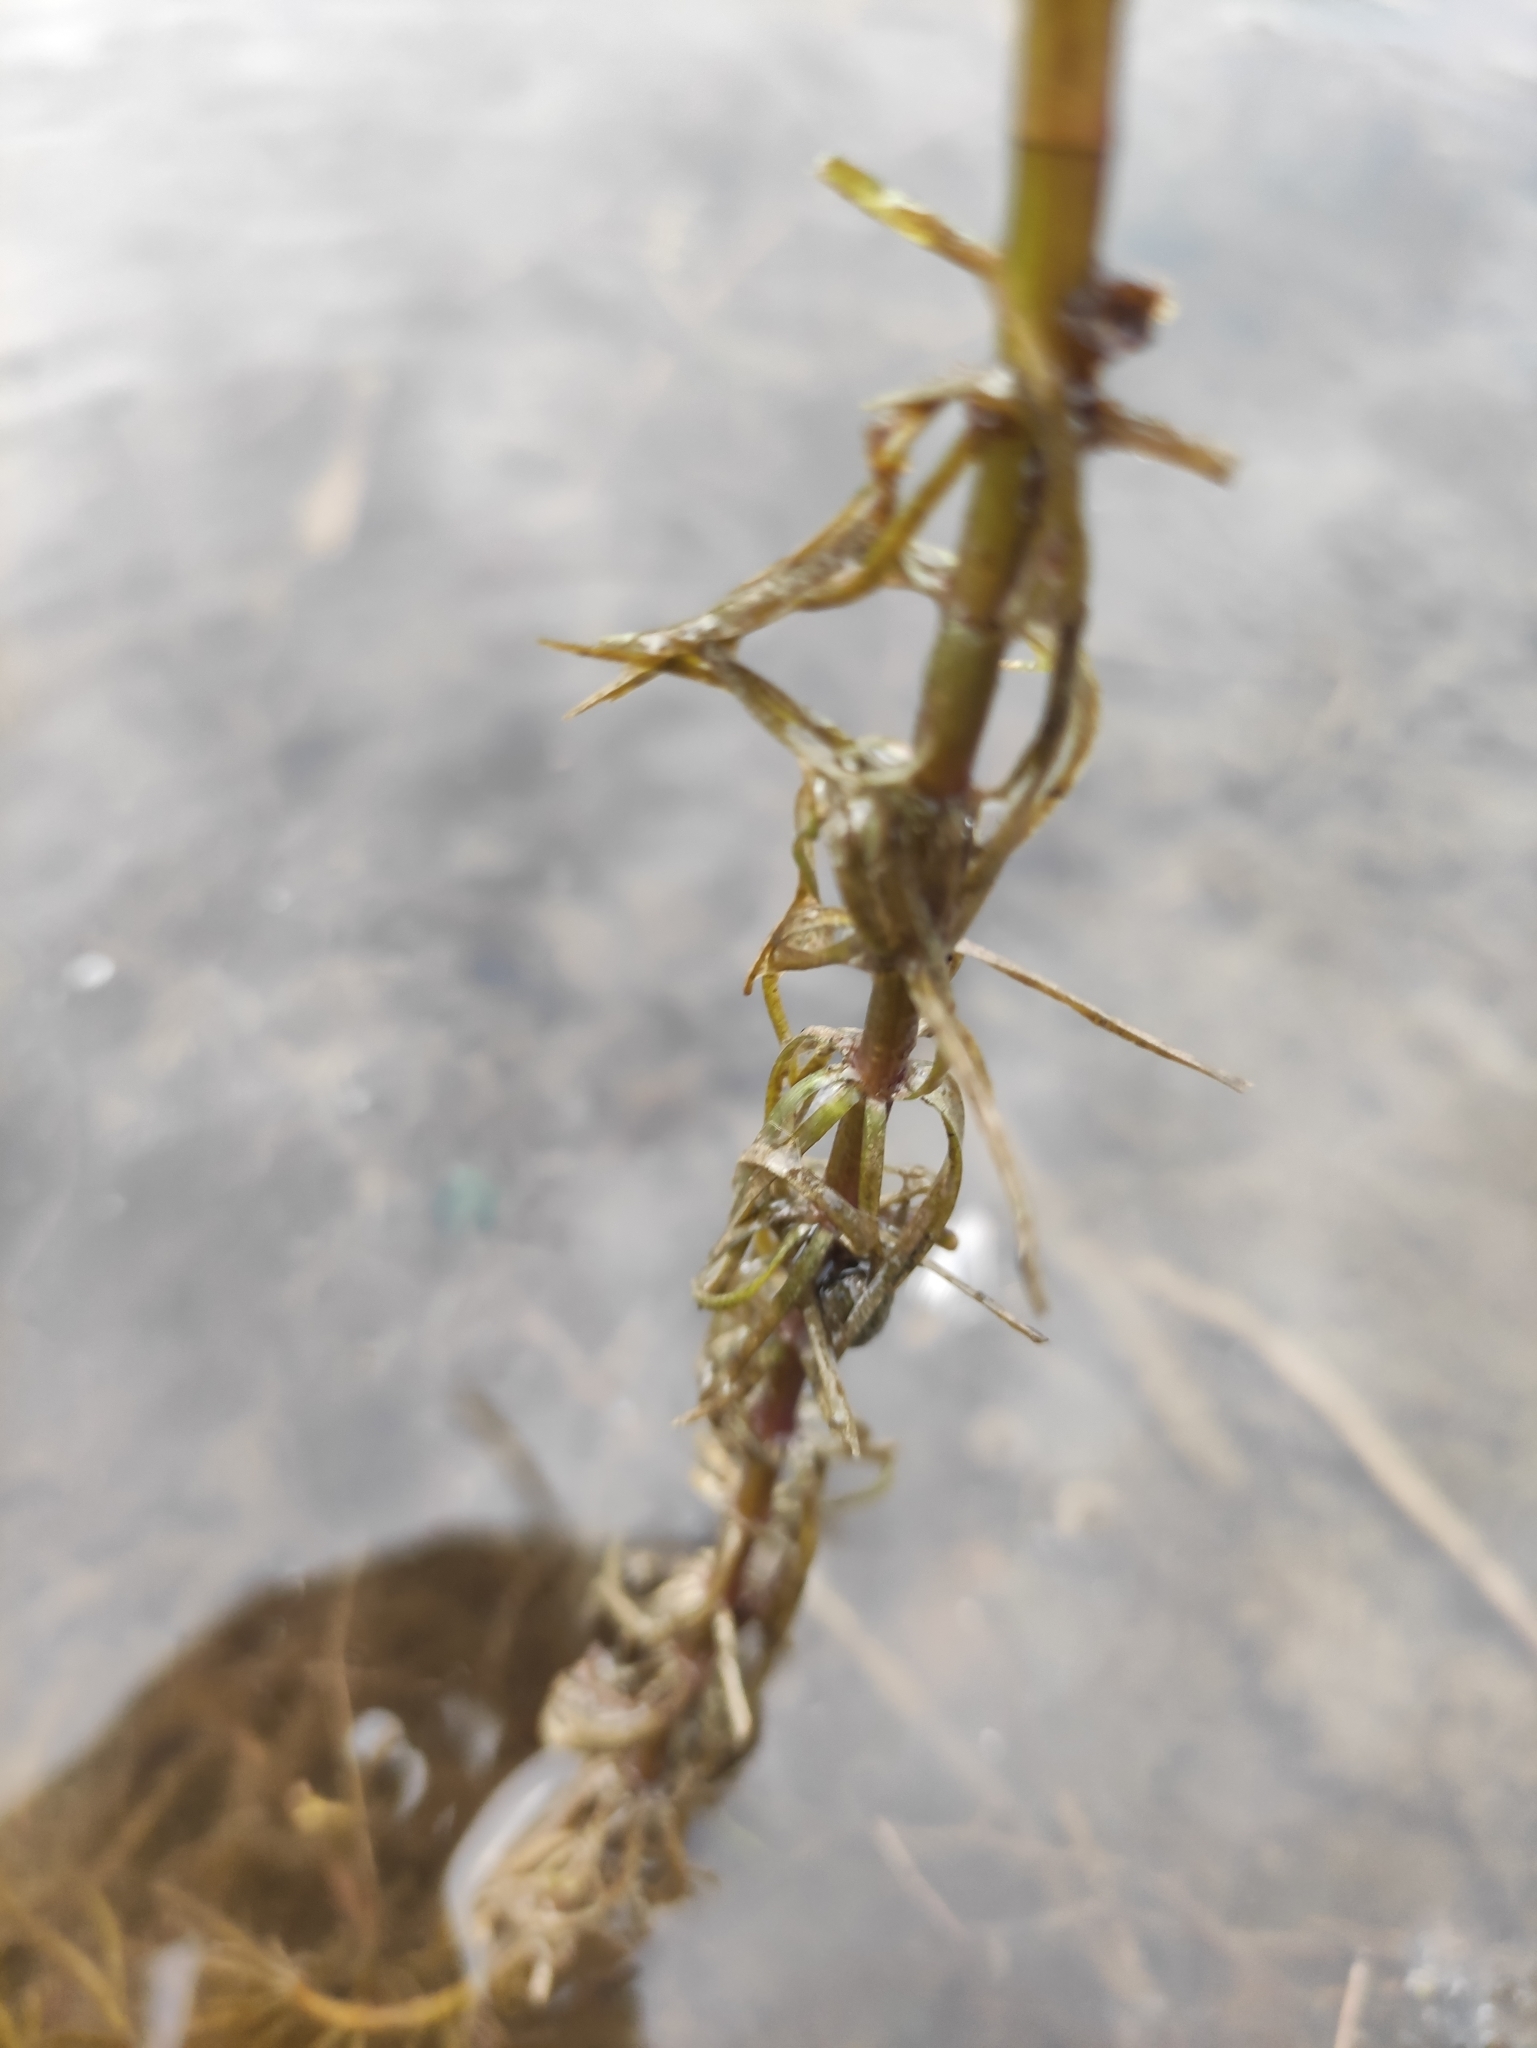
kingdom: Plantae
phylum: Tracheophyta
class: Magnoliopsida
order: Lamiales
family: Plantaginaceae
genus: Hippuris
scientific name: Hippuris vulgaris
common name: Mare's-tail
